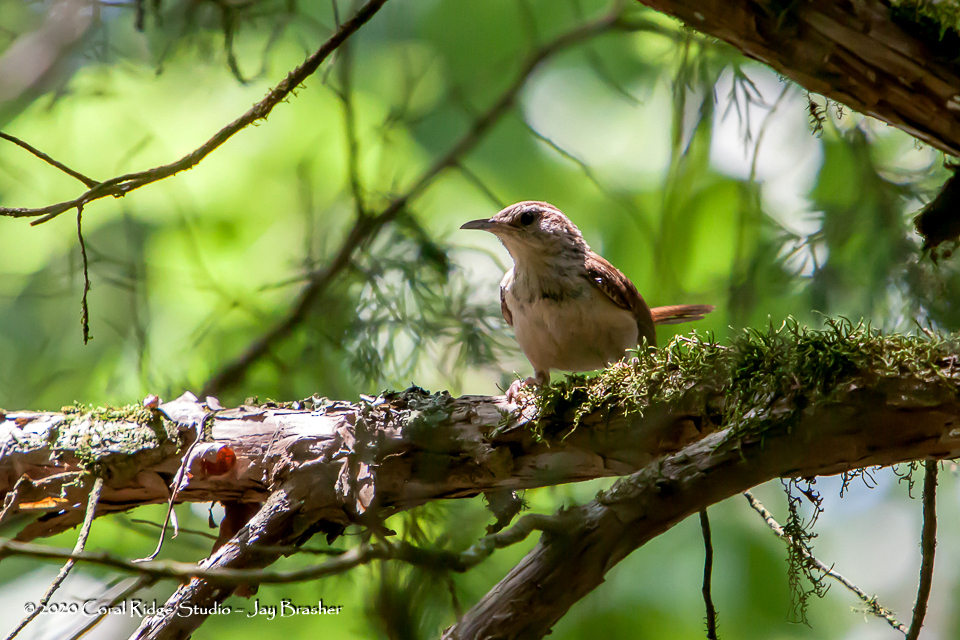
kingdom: Animalia
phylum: Chordata
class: Aves
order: Passeriformes
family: Troglodytidae
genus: Thryothorus
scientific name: Thryothorus ludovicianus
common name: Carolina wren
